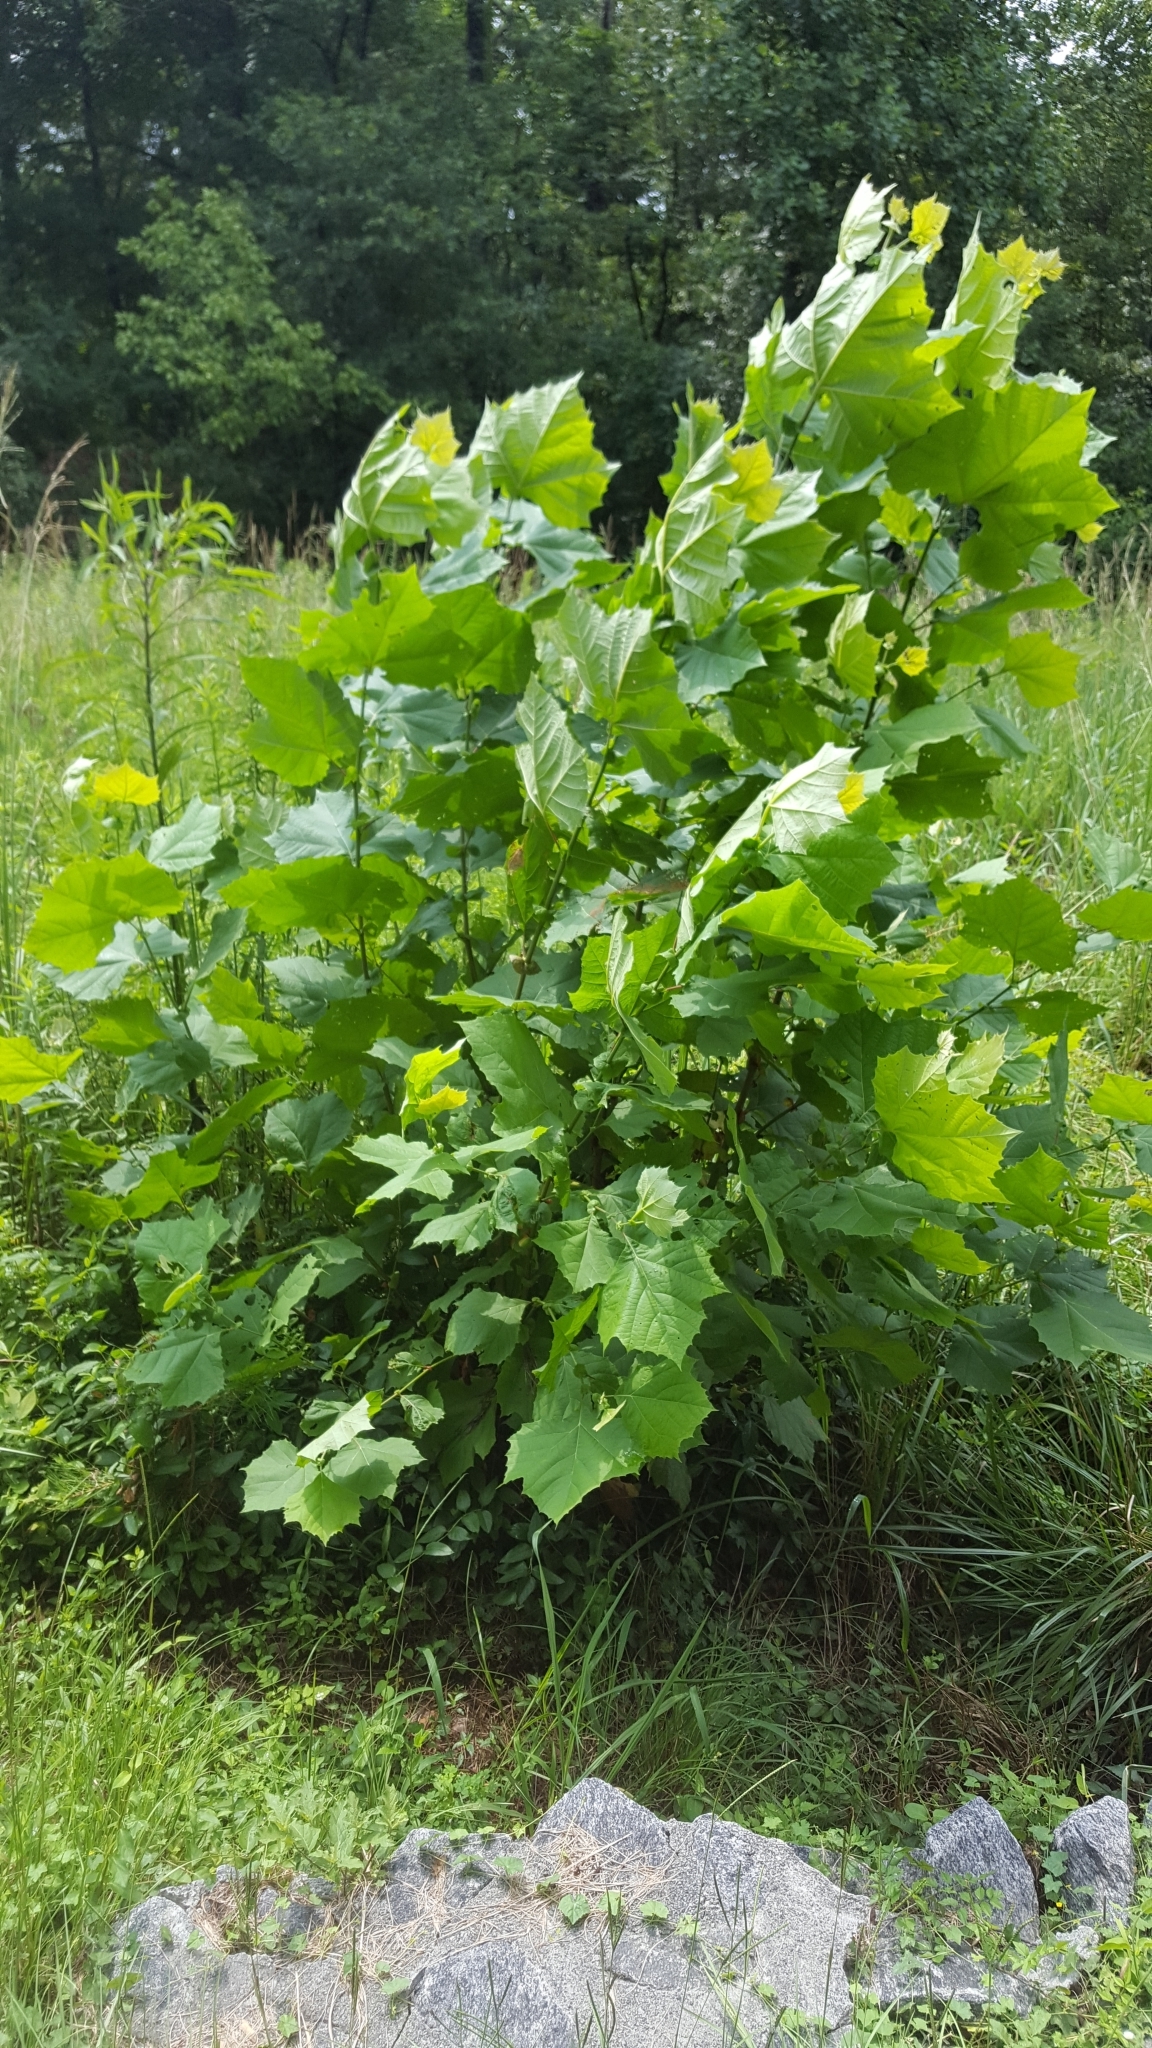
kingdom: Plantae
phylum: Tracheophyta
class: Magnoliopsida
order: Proteales
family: Platanaceae
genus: Platanus
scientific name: Platanus occidentalis
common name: American sycamore
